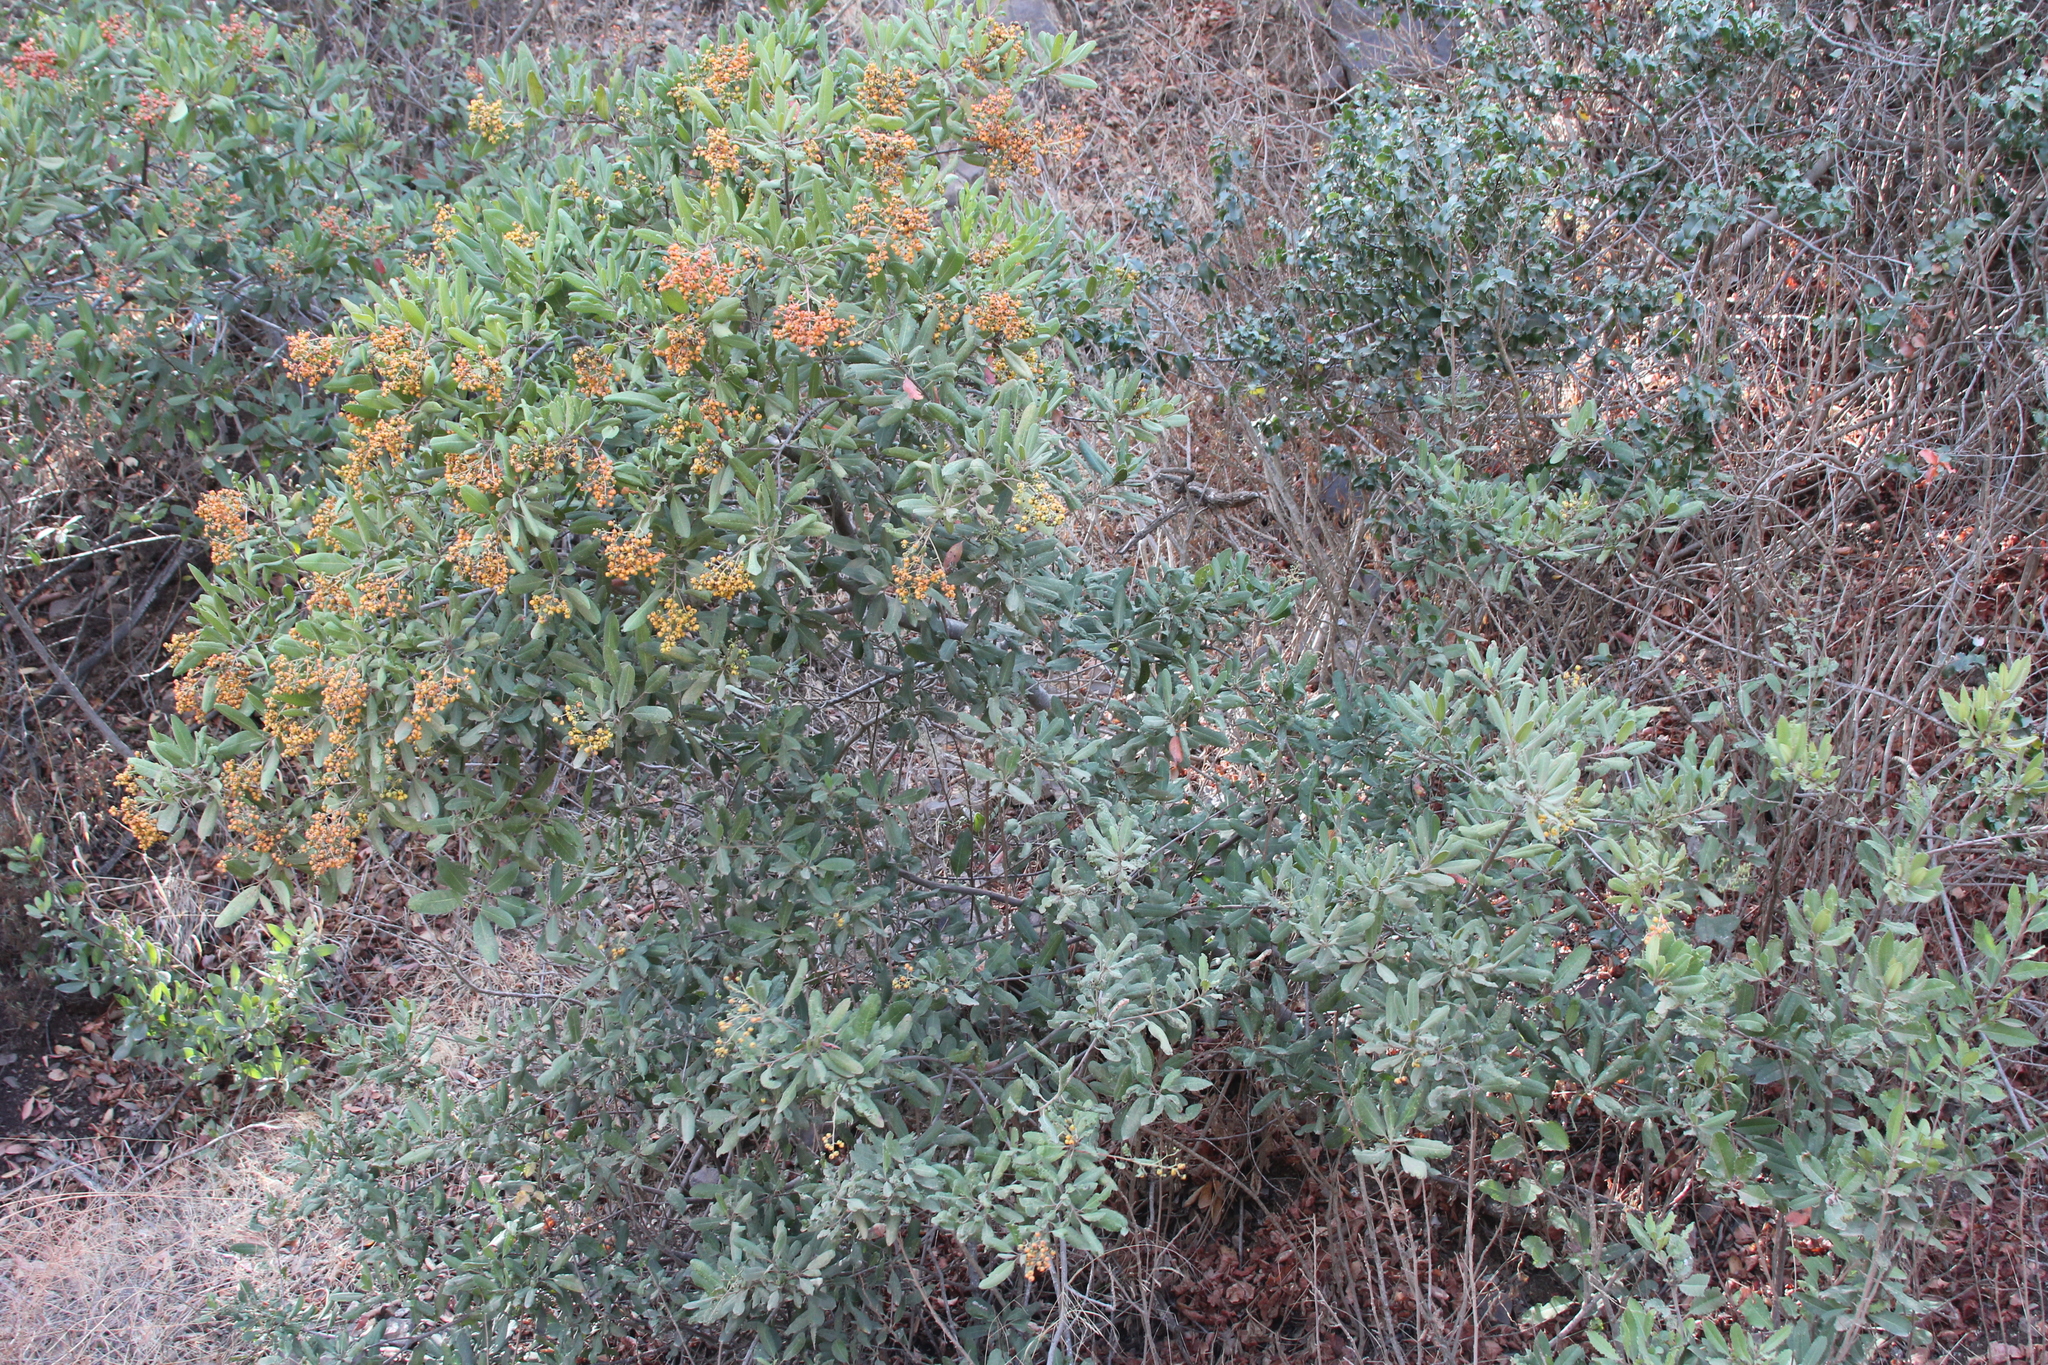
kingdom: Plantae
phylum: Tracheophyta
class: Magnoliopsida
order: Rosales
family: Rosaceae
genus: Heteromeles
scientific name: Heteromeles arbutifolia
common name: California-holly
